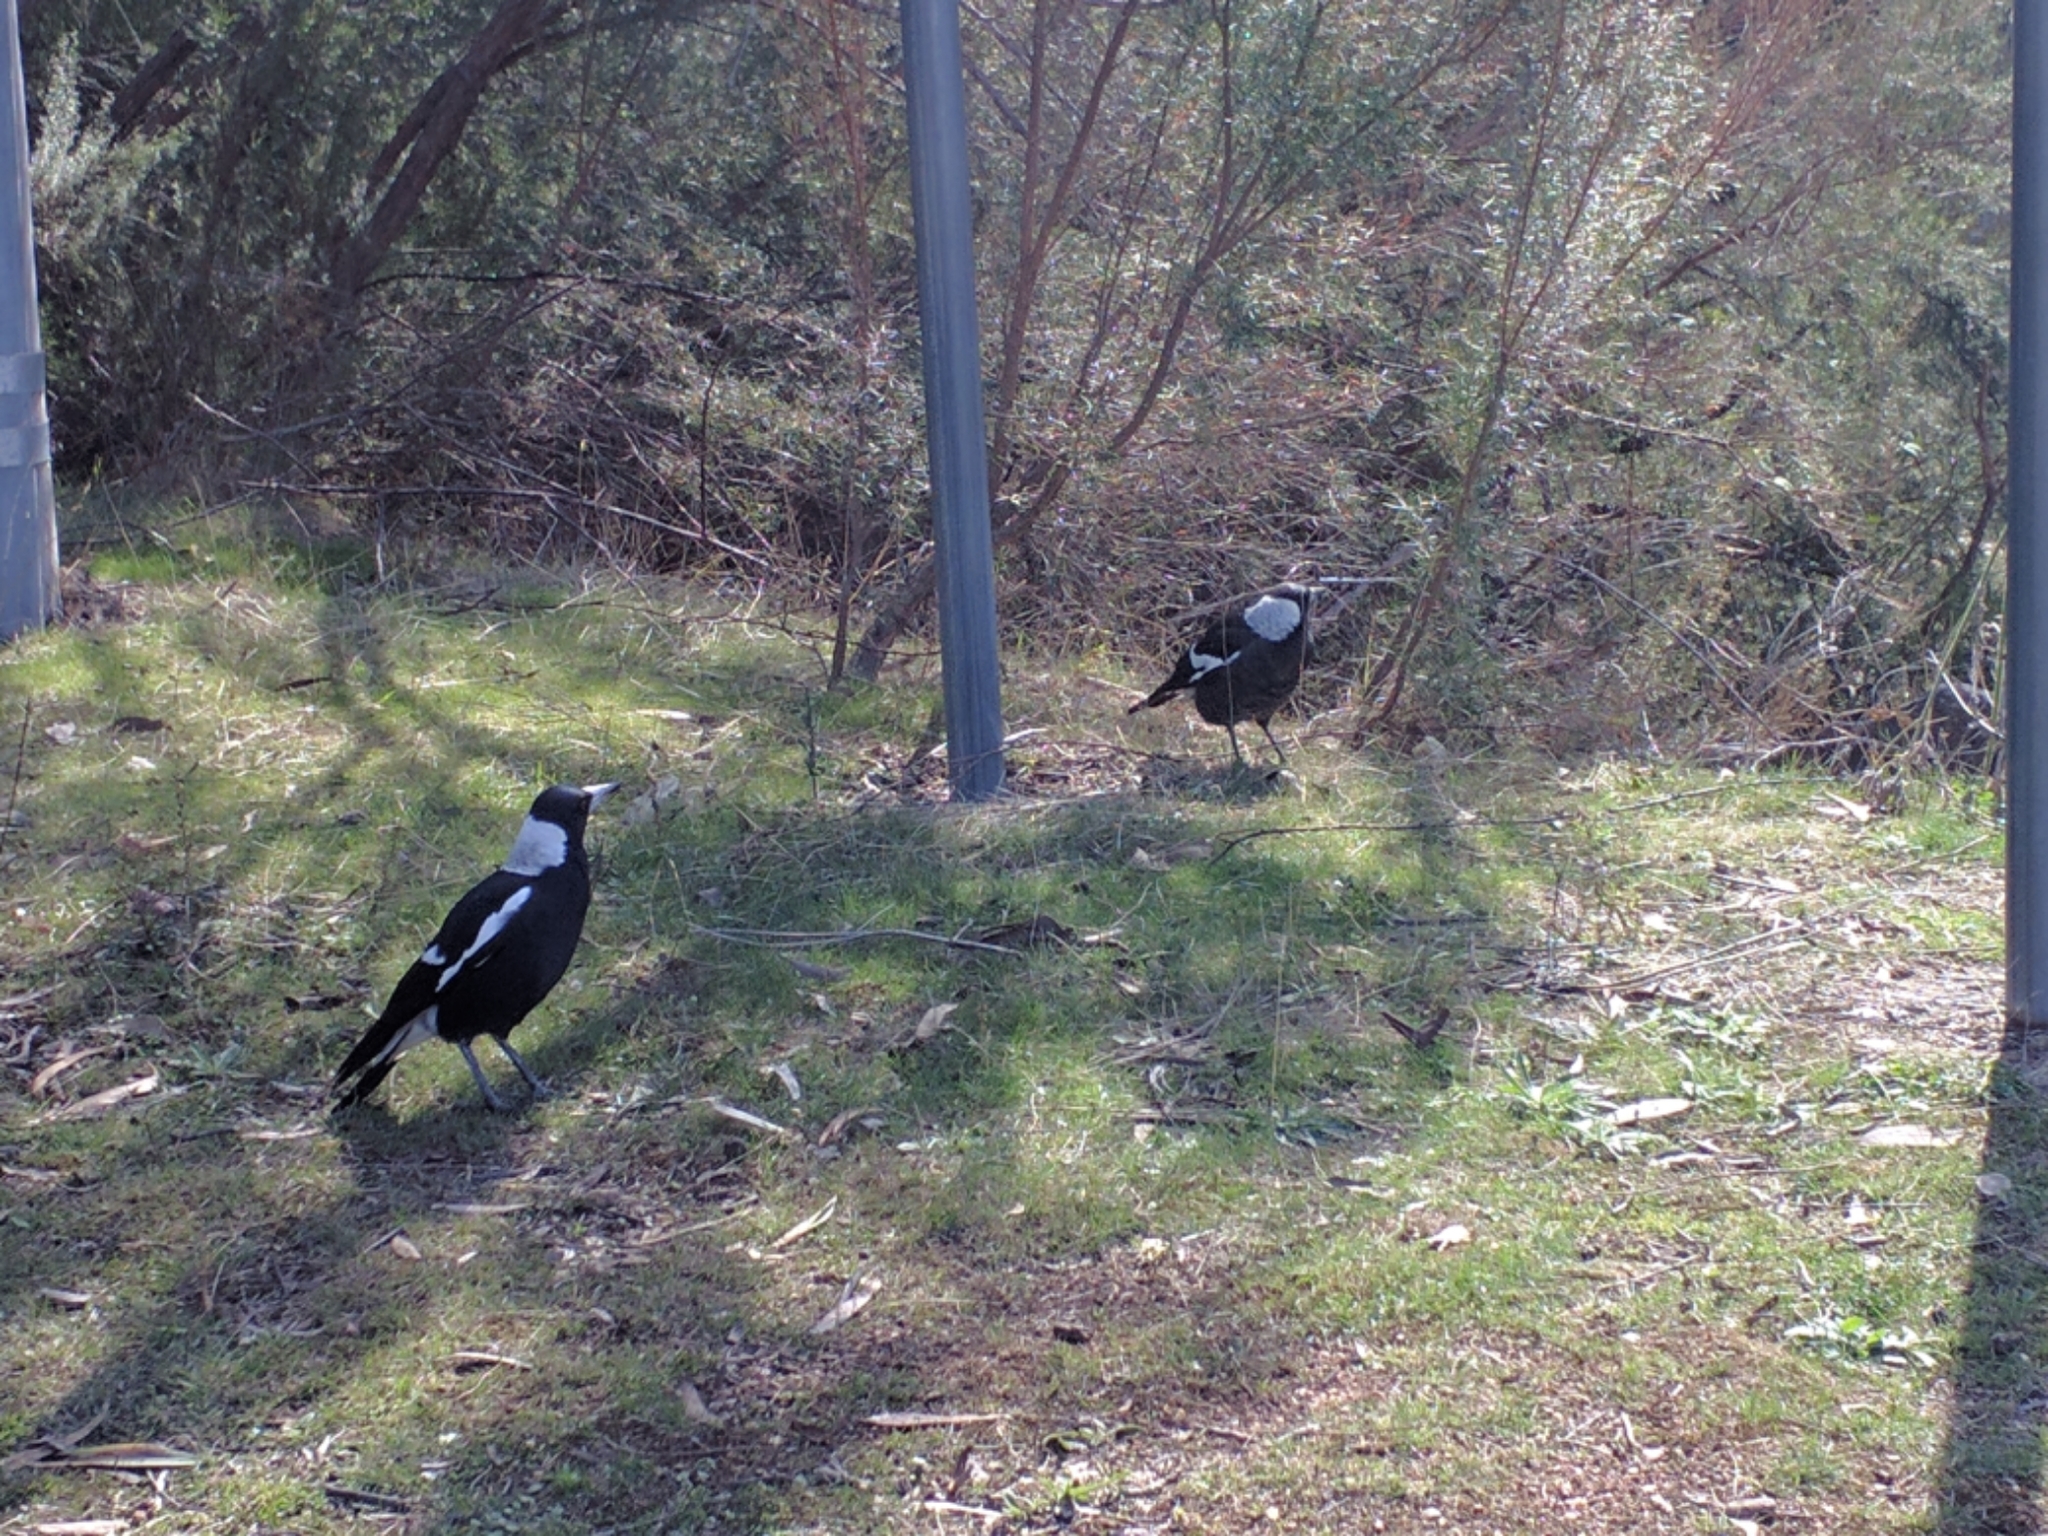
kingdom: Animalia
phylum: Chordata
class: Aves
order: Passeriformes
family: Cracticidae
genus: Gymnorhina
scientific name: Gymnorhina tibicen
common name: Australian magpie
